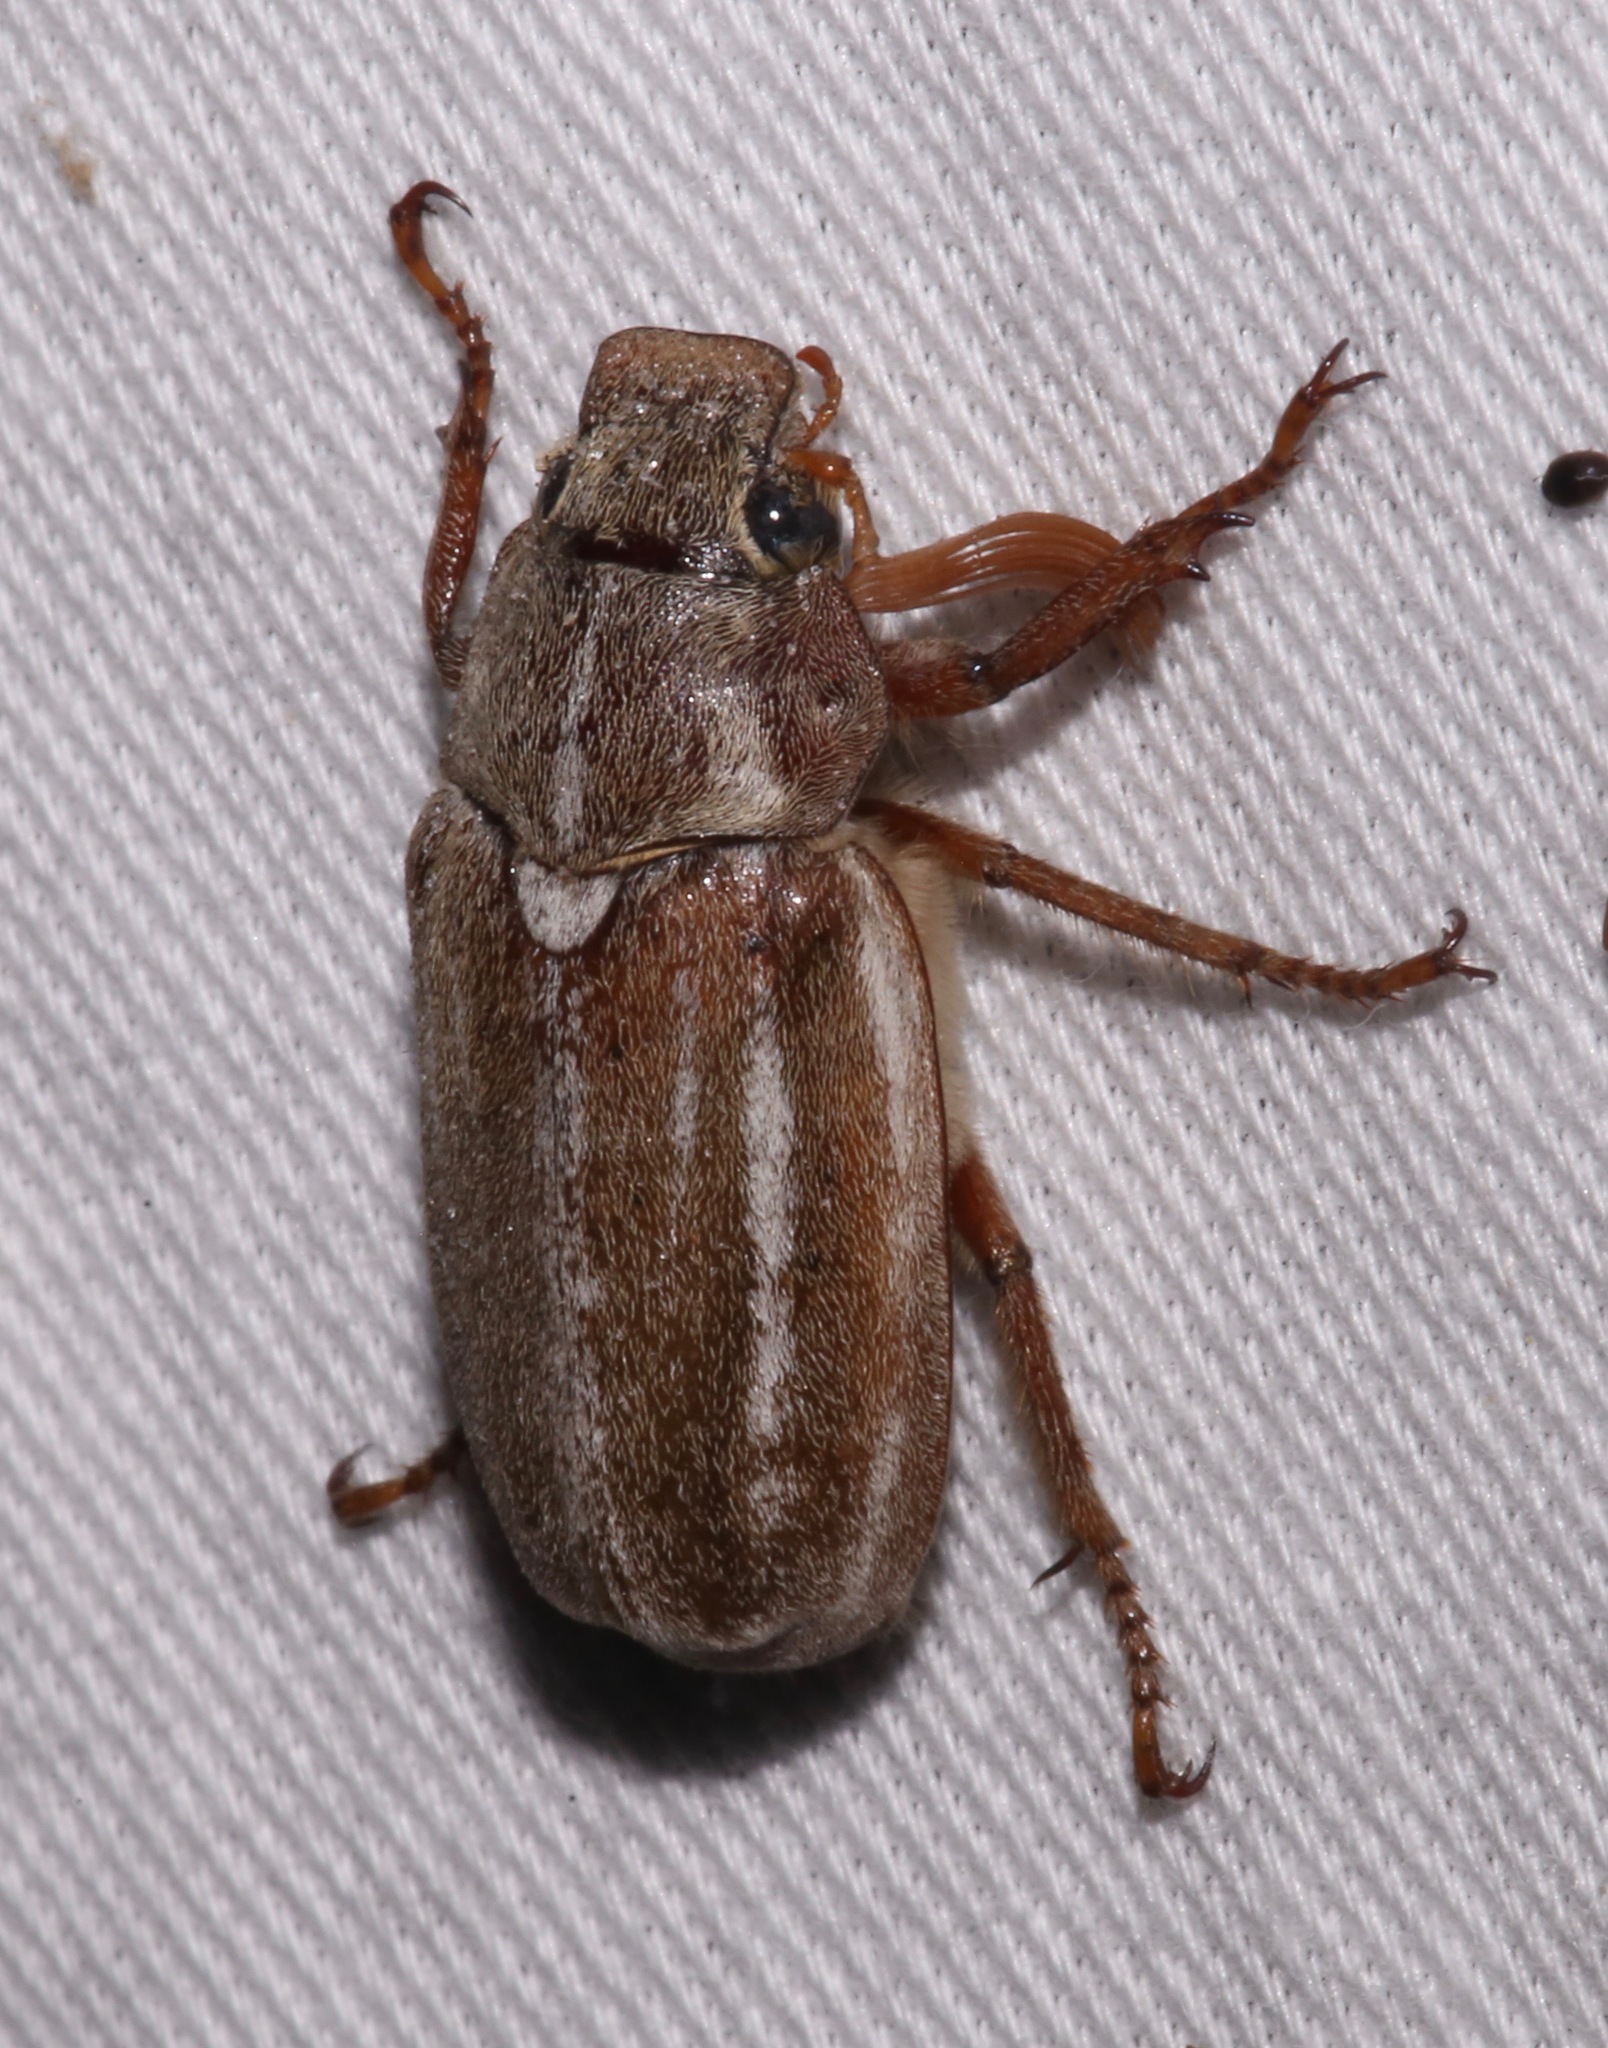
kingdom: Animalia
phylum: Arthropoda
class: Insecta
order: Coleoptera
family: Scarabaeidae
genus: Polyphylla
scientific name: Polyphylla occidentalis
